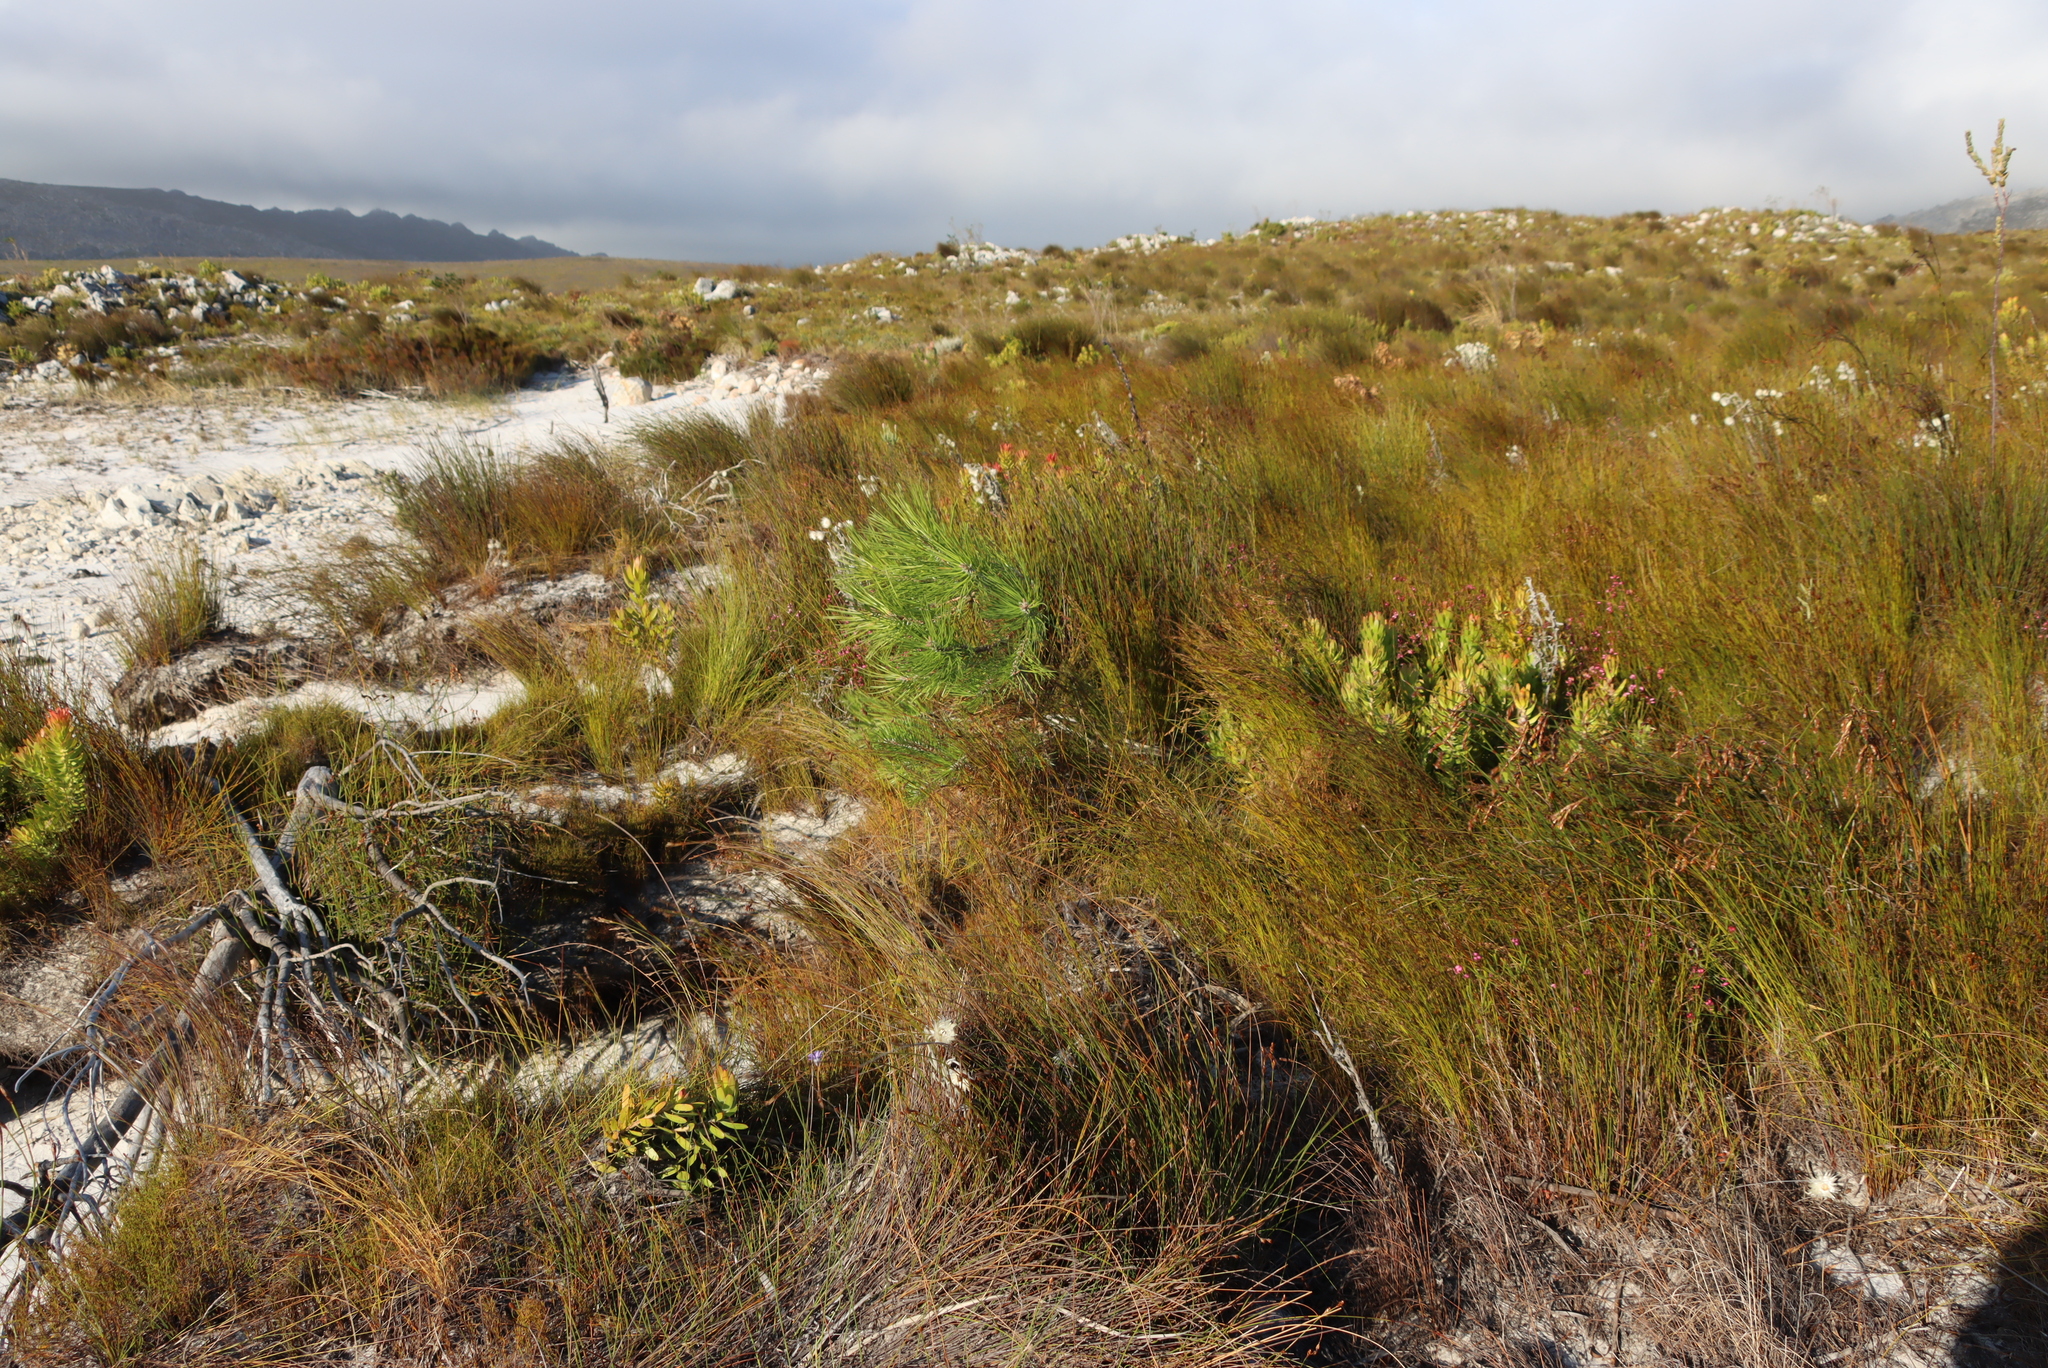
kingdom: Plantae
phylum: Tracheophyta
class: Magnoliopsida
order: Proteales
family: Proteaceae
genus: Mimetes
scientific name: Mimetes cucullatus
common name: Common pagoda
